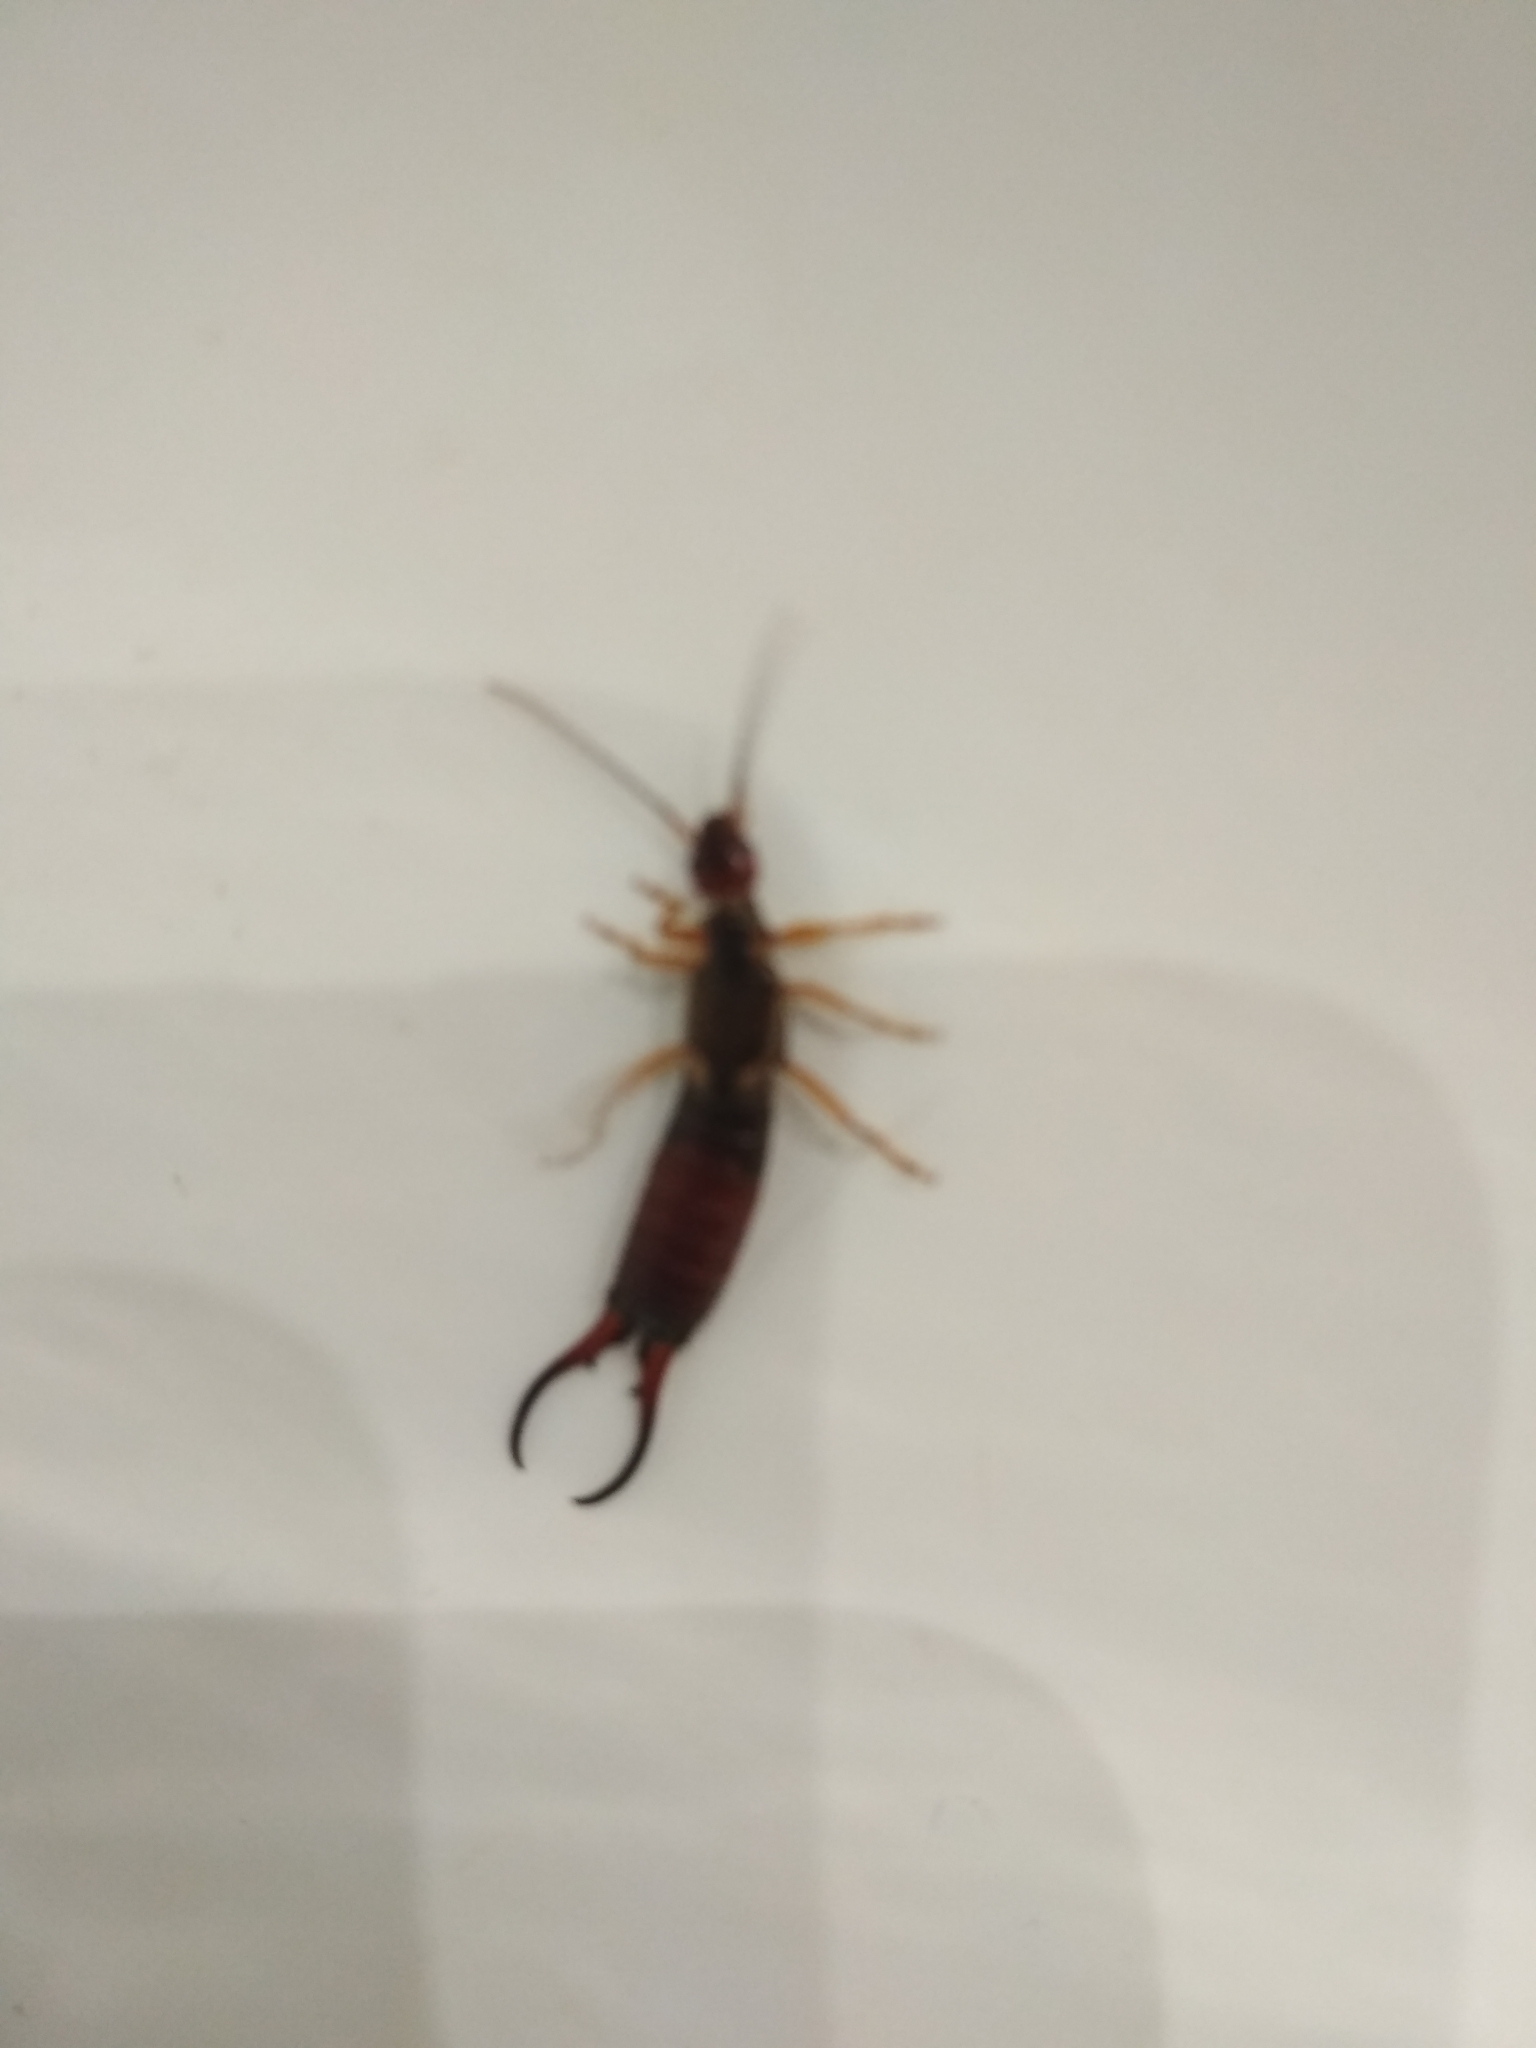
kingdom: Animalia
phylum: Arthropoda
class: Insecta
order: Dermaptera
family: Forficulidae
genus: Forficula
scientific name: Forficula
